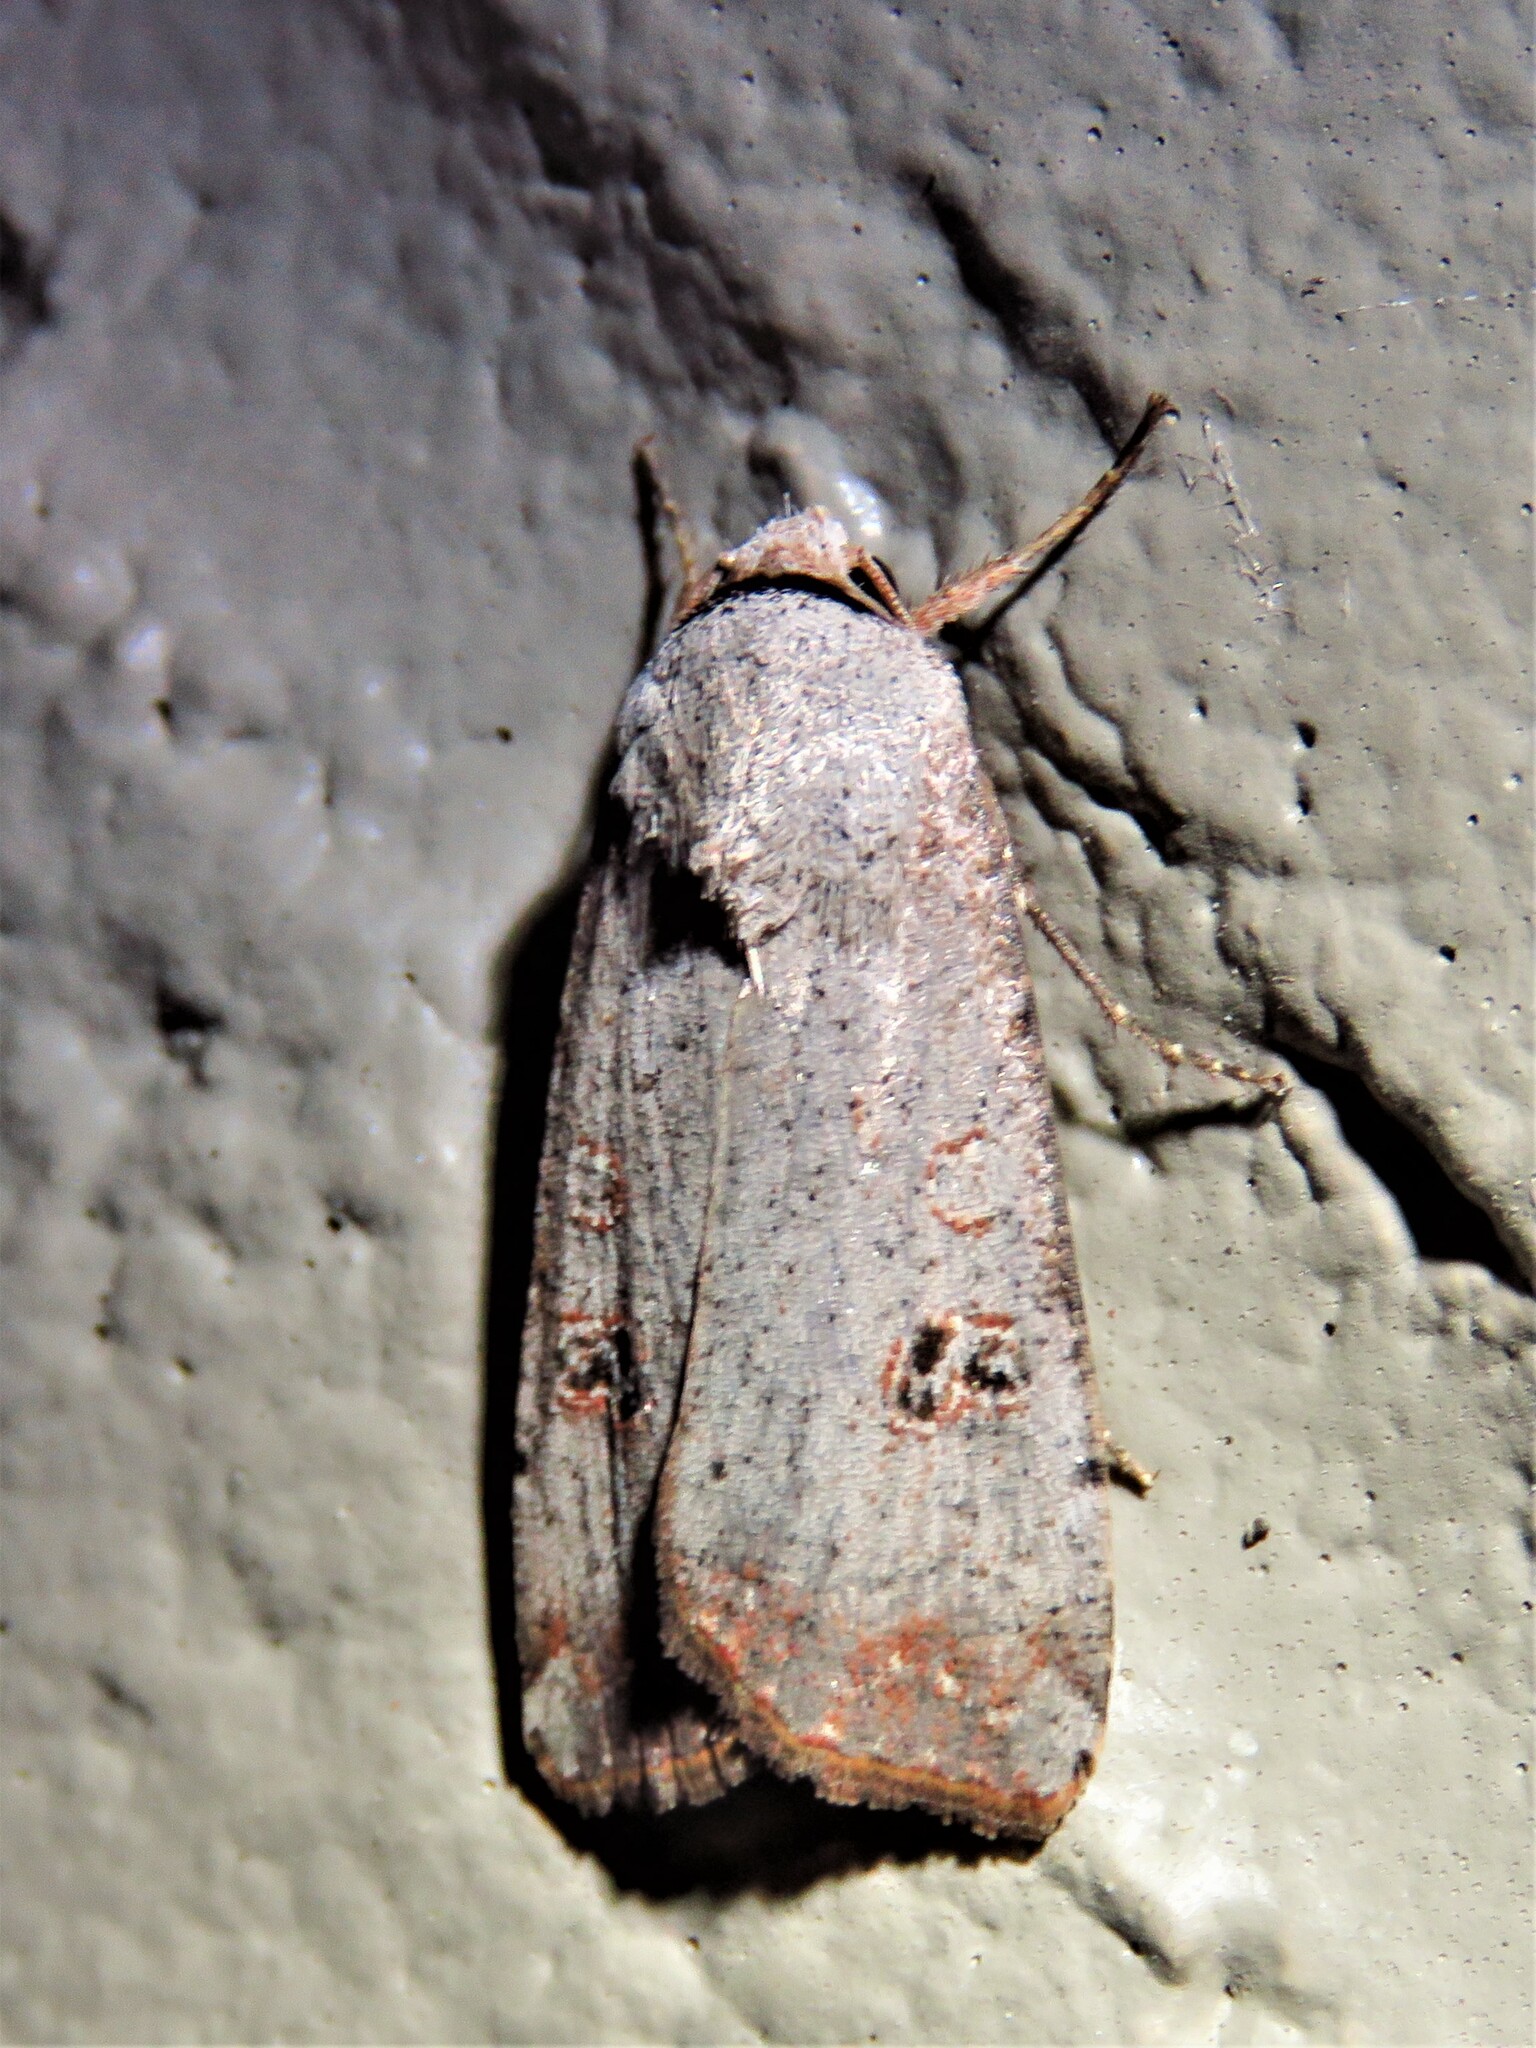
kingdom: Animalia
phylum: Arthropoda
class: Insecta
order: Lepidoptera
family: Noctuidae
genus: Anicla
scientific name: Anicla infecta
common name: Green cutworm
